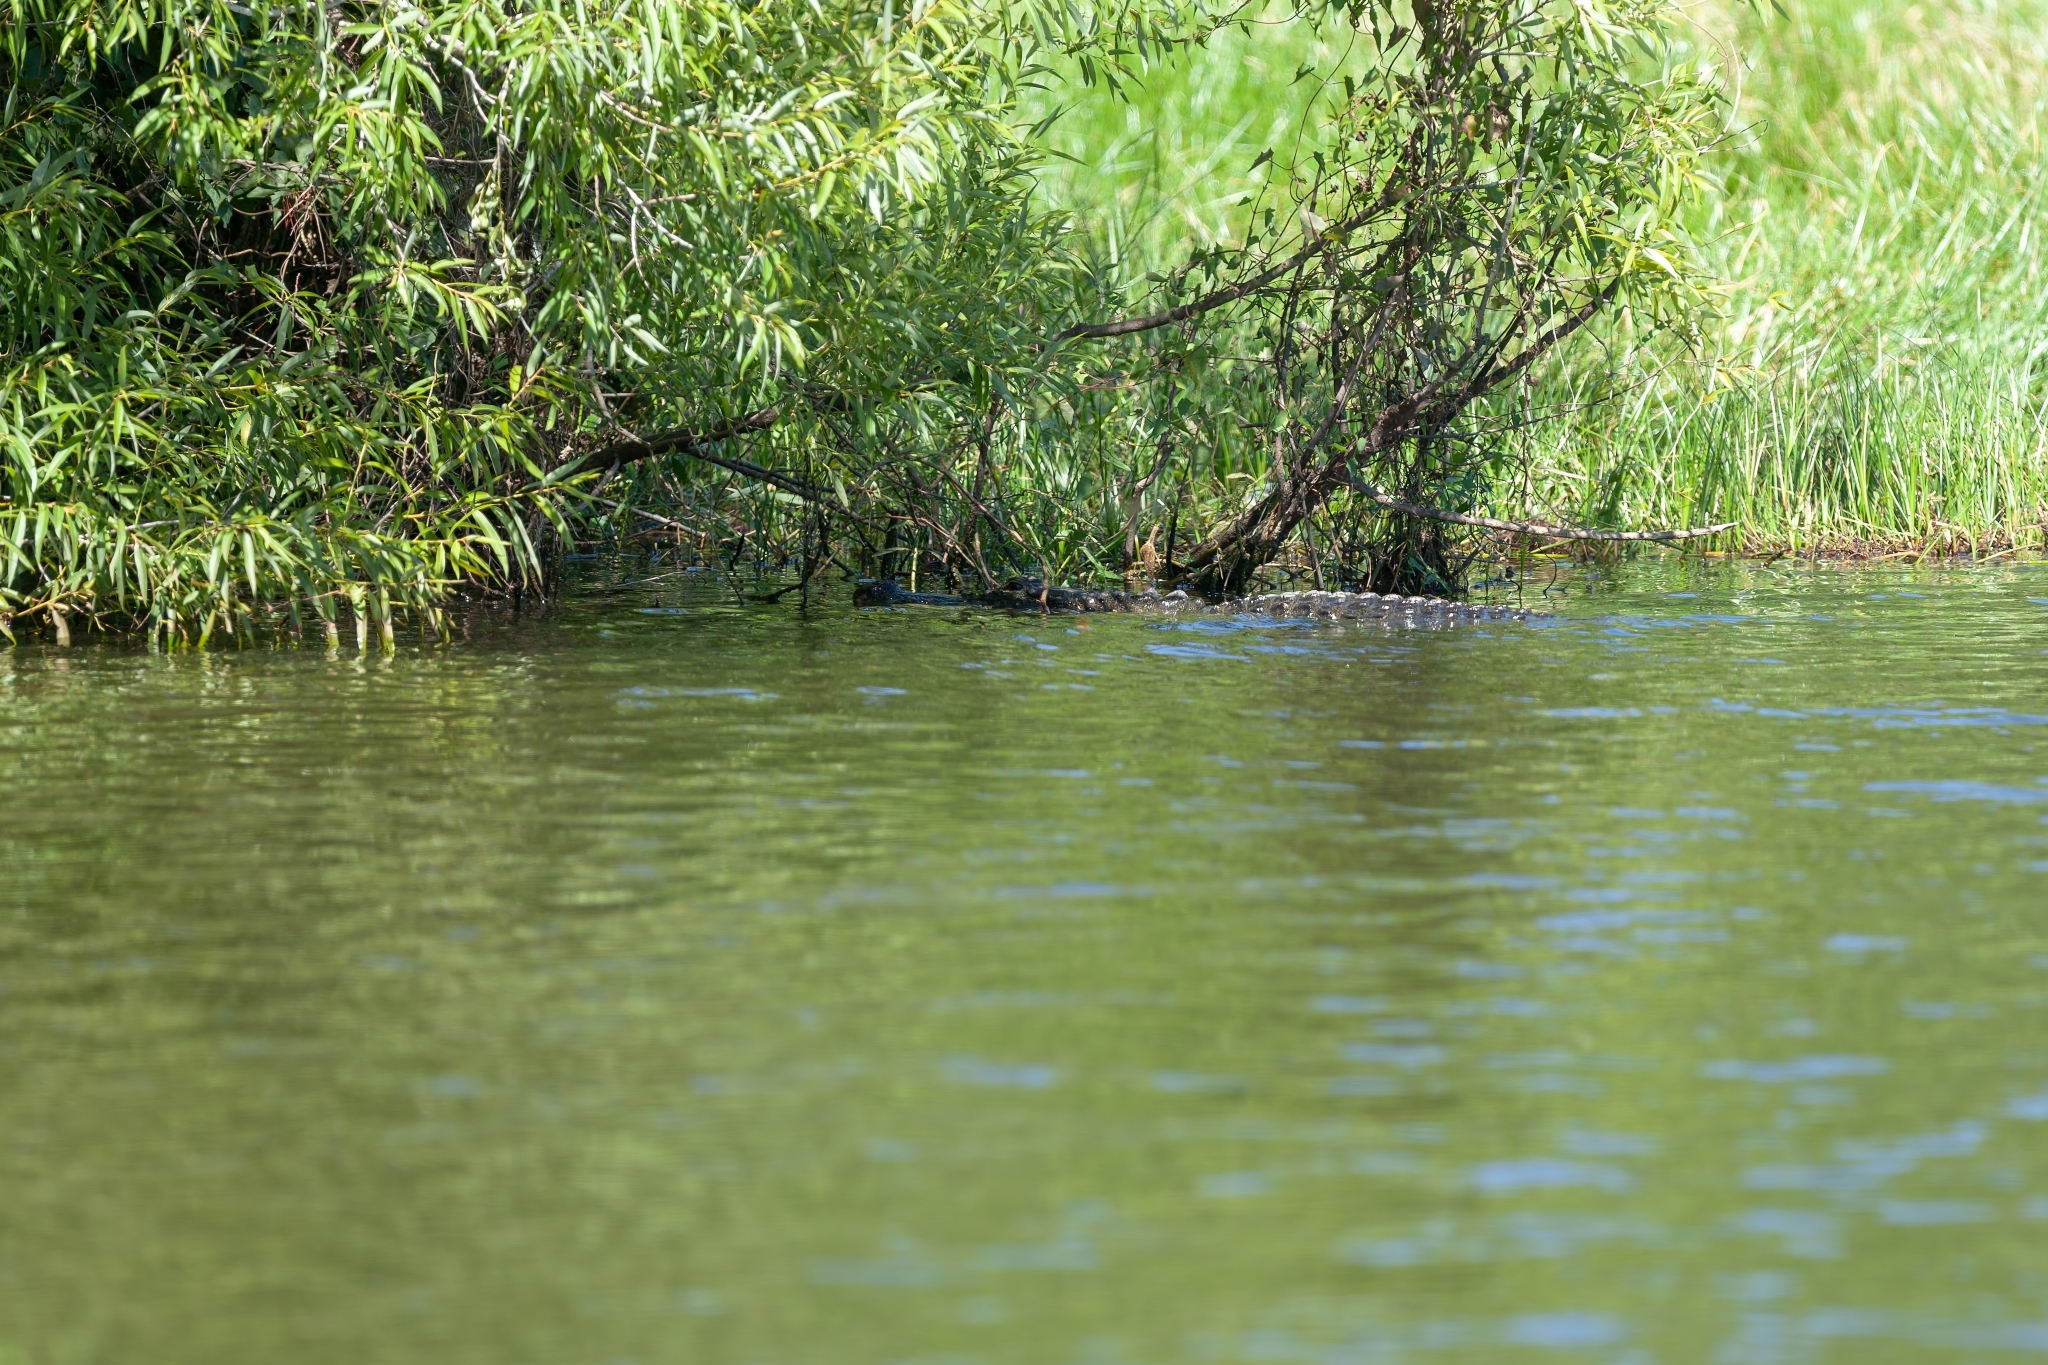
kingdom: Animalia
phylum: Chordata
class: Crocodylia
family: Alligatoridae
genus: Alligator
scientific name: Alligator mississippiensis
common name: American alligator
